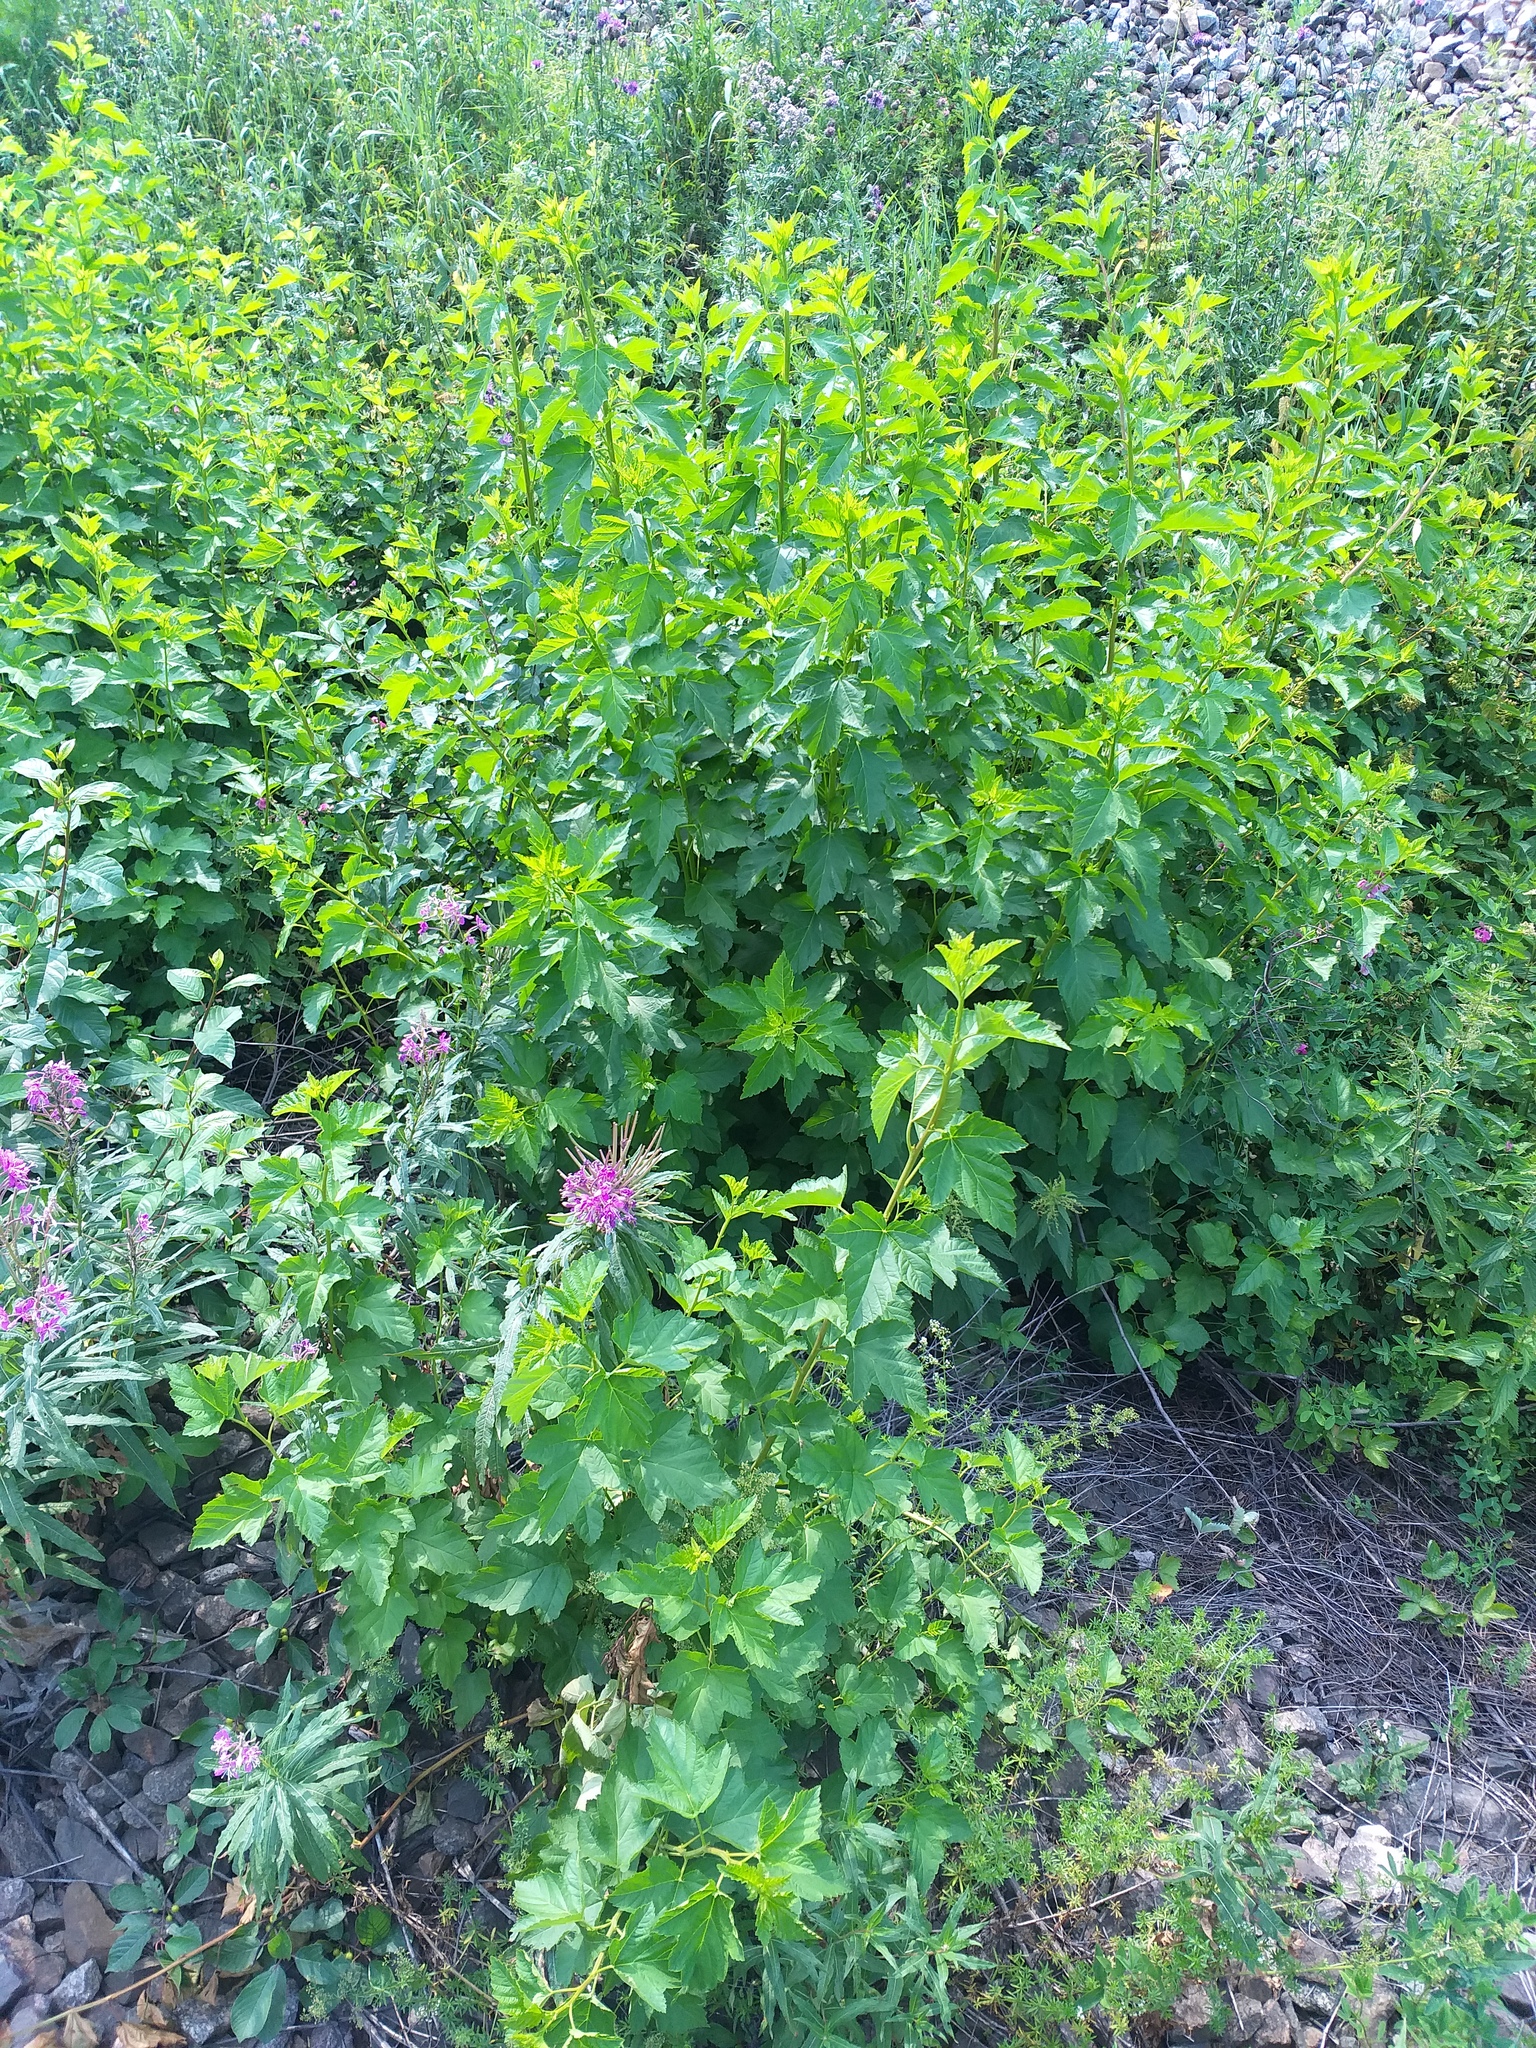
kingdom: Plantae
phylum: Tracheophyta
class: Magnoliopsida
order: Rosales
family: Rosaceae
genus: Physocarpus
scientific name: Physocarpus opulifolius
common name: Ninebark
